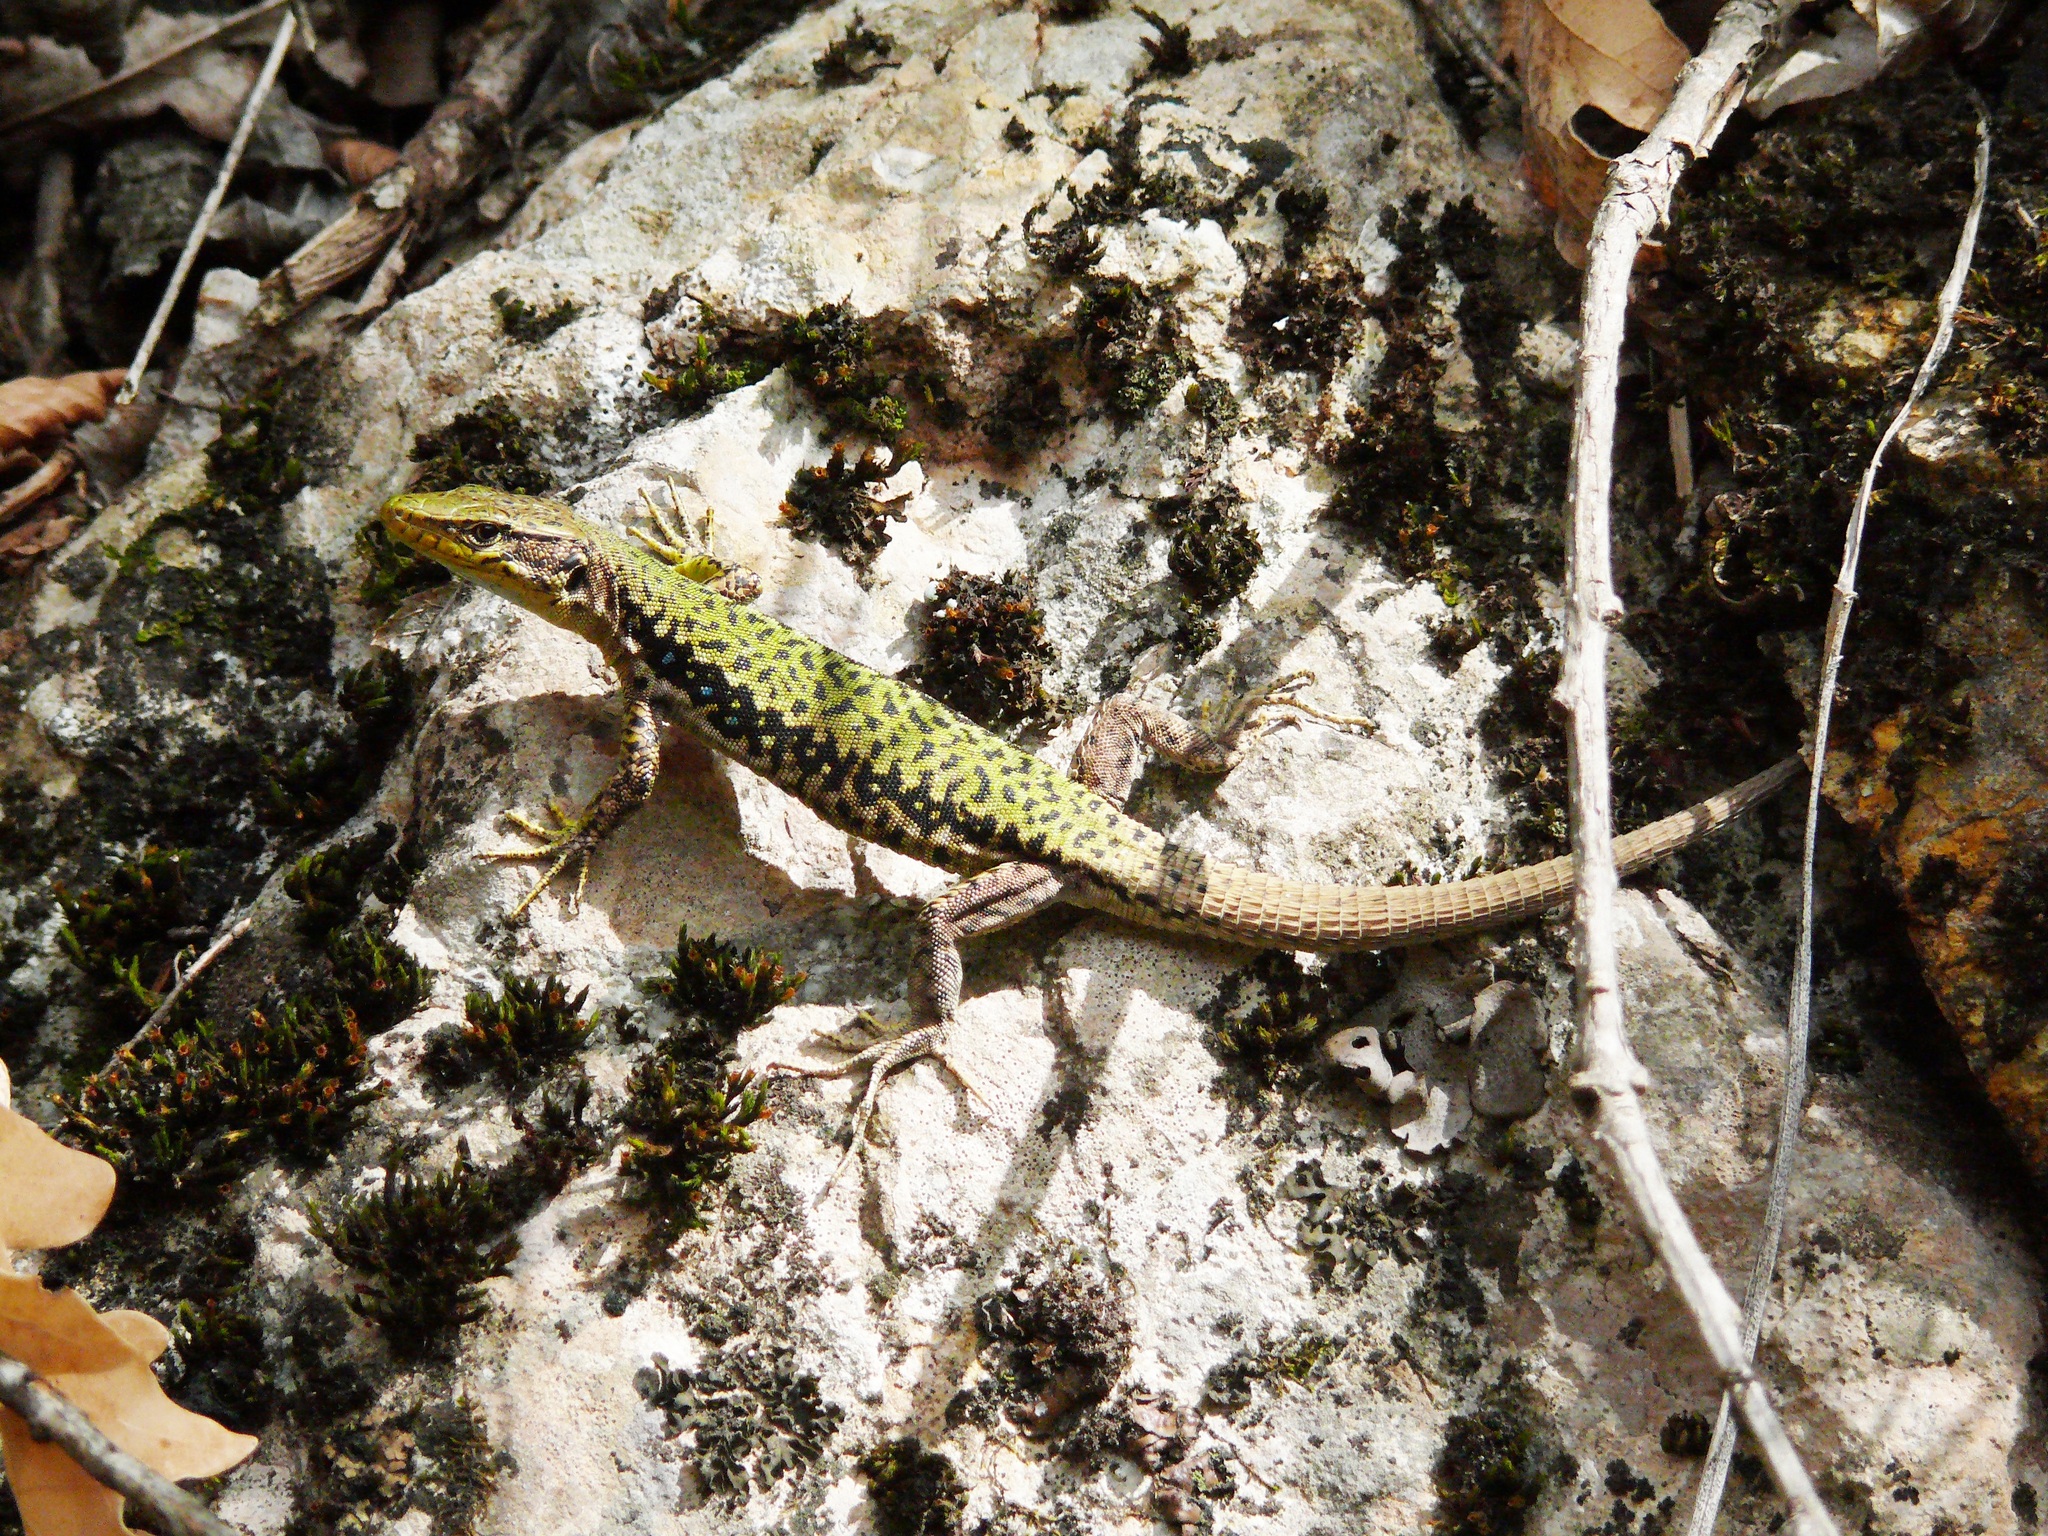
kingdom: Animalia
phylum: Chordata
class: Squamata
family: Lacertidae
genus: Darevskia
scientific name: Darevskia lindholmi
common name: Crimean rock lizard
